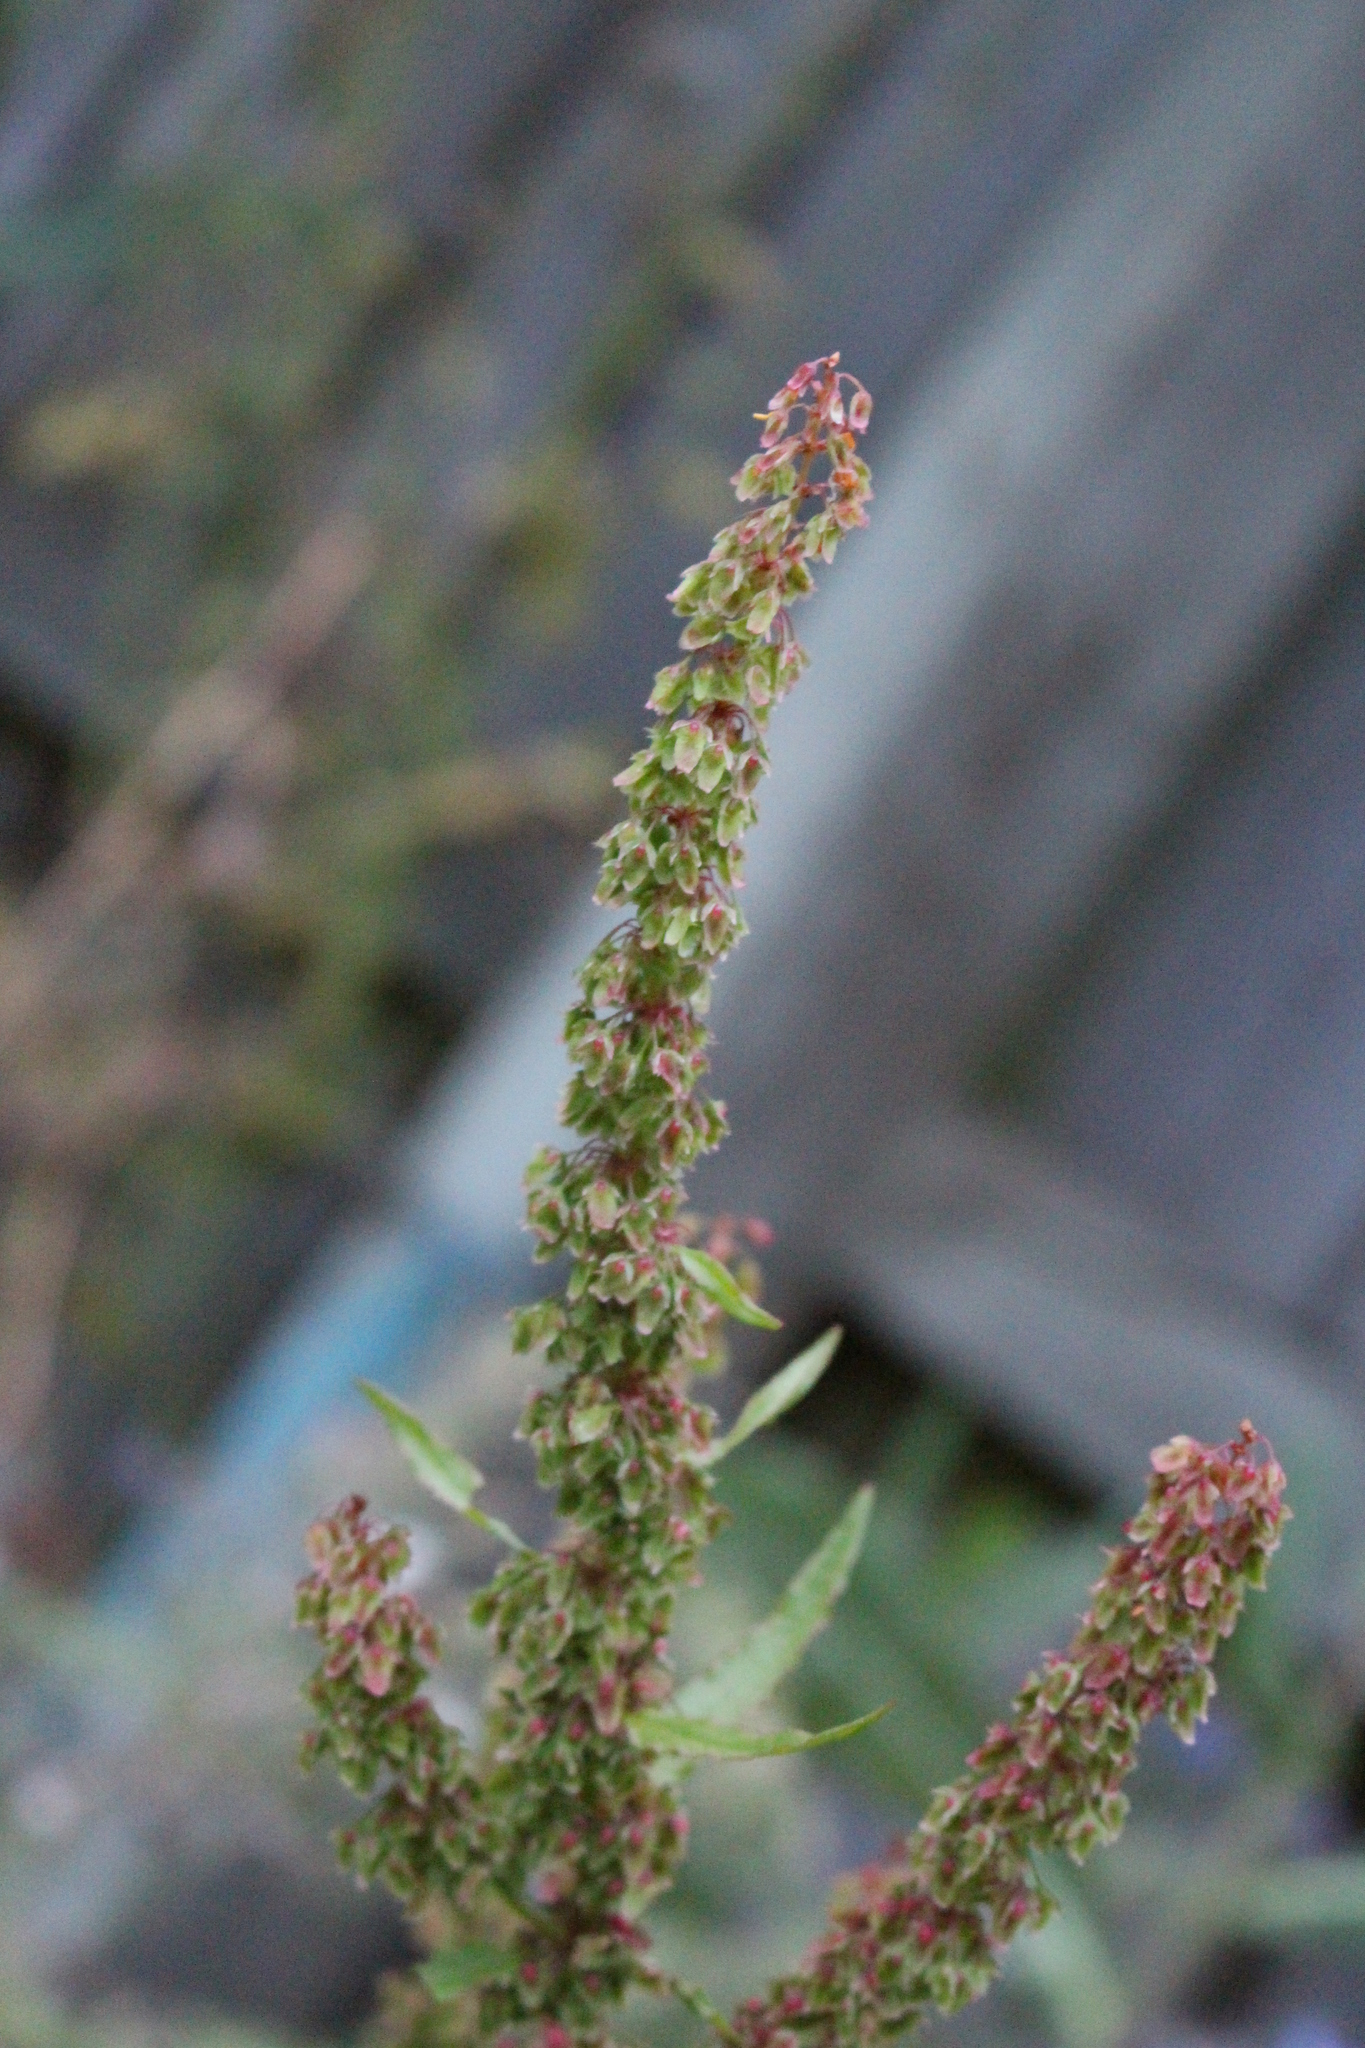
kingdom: Plantae
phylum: Tracheophyta
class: Magnoliopsida
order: Caryophyllales
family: Polygonaceae
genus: Rumex
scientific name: Rumex obtusifolius
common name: Bitter dock
